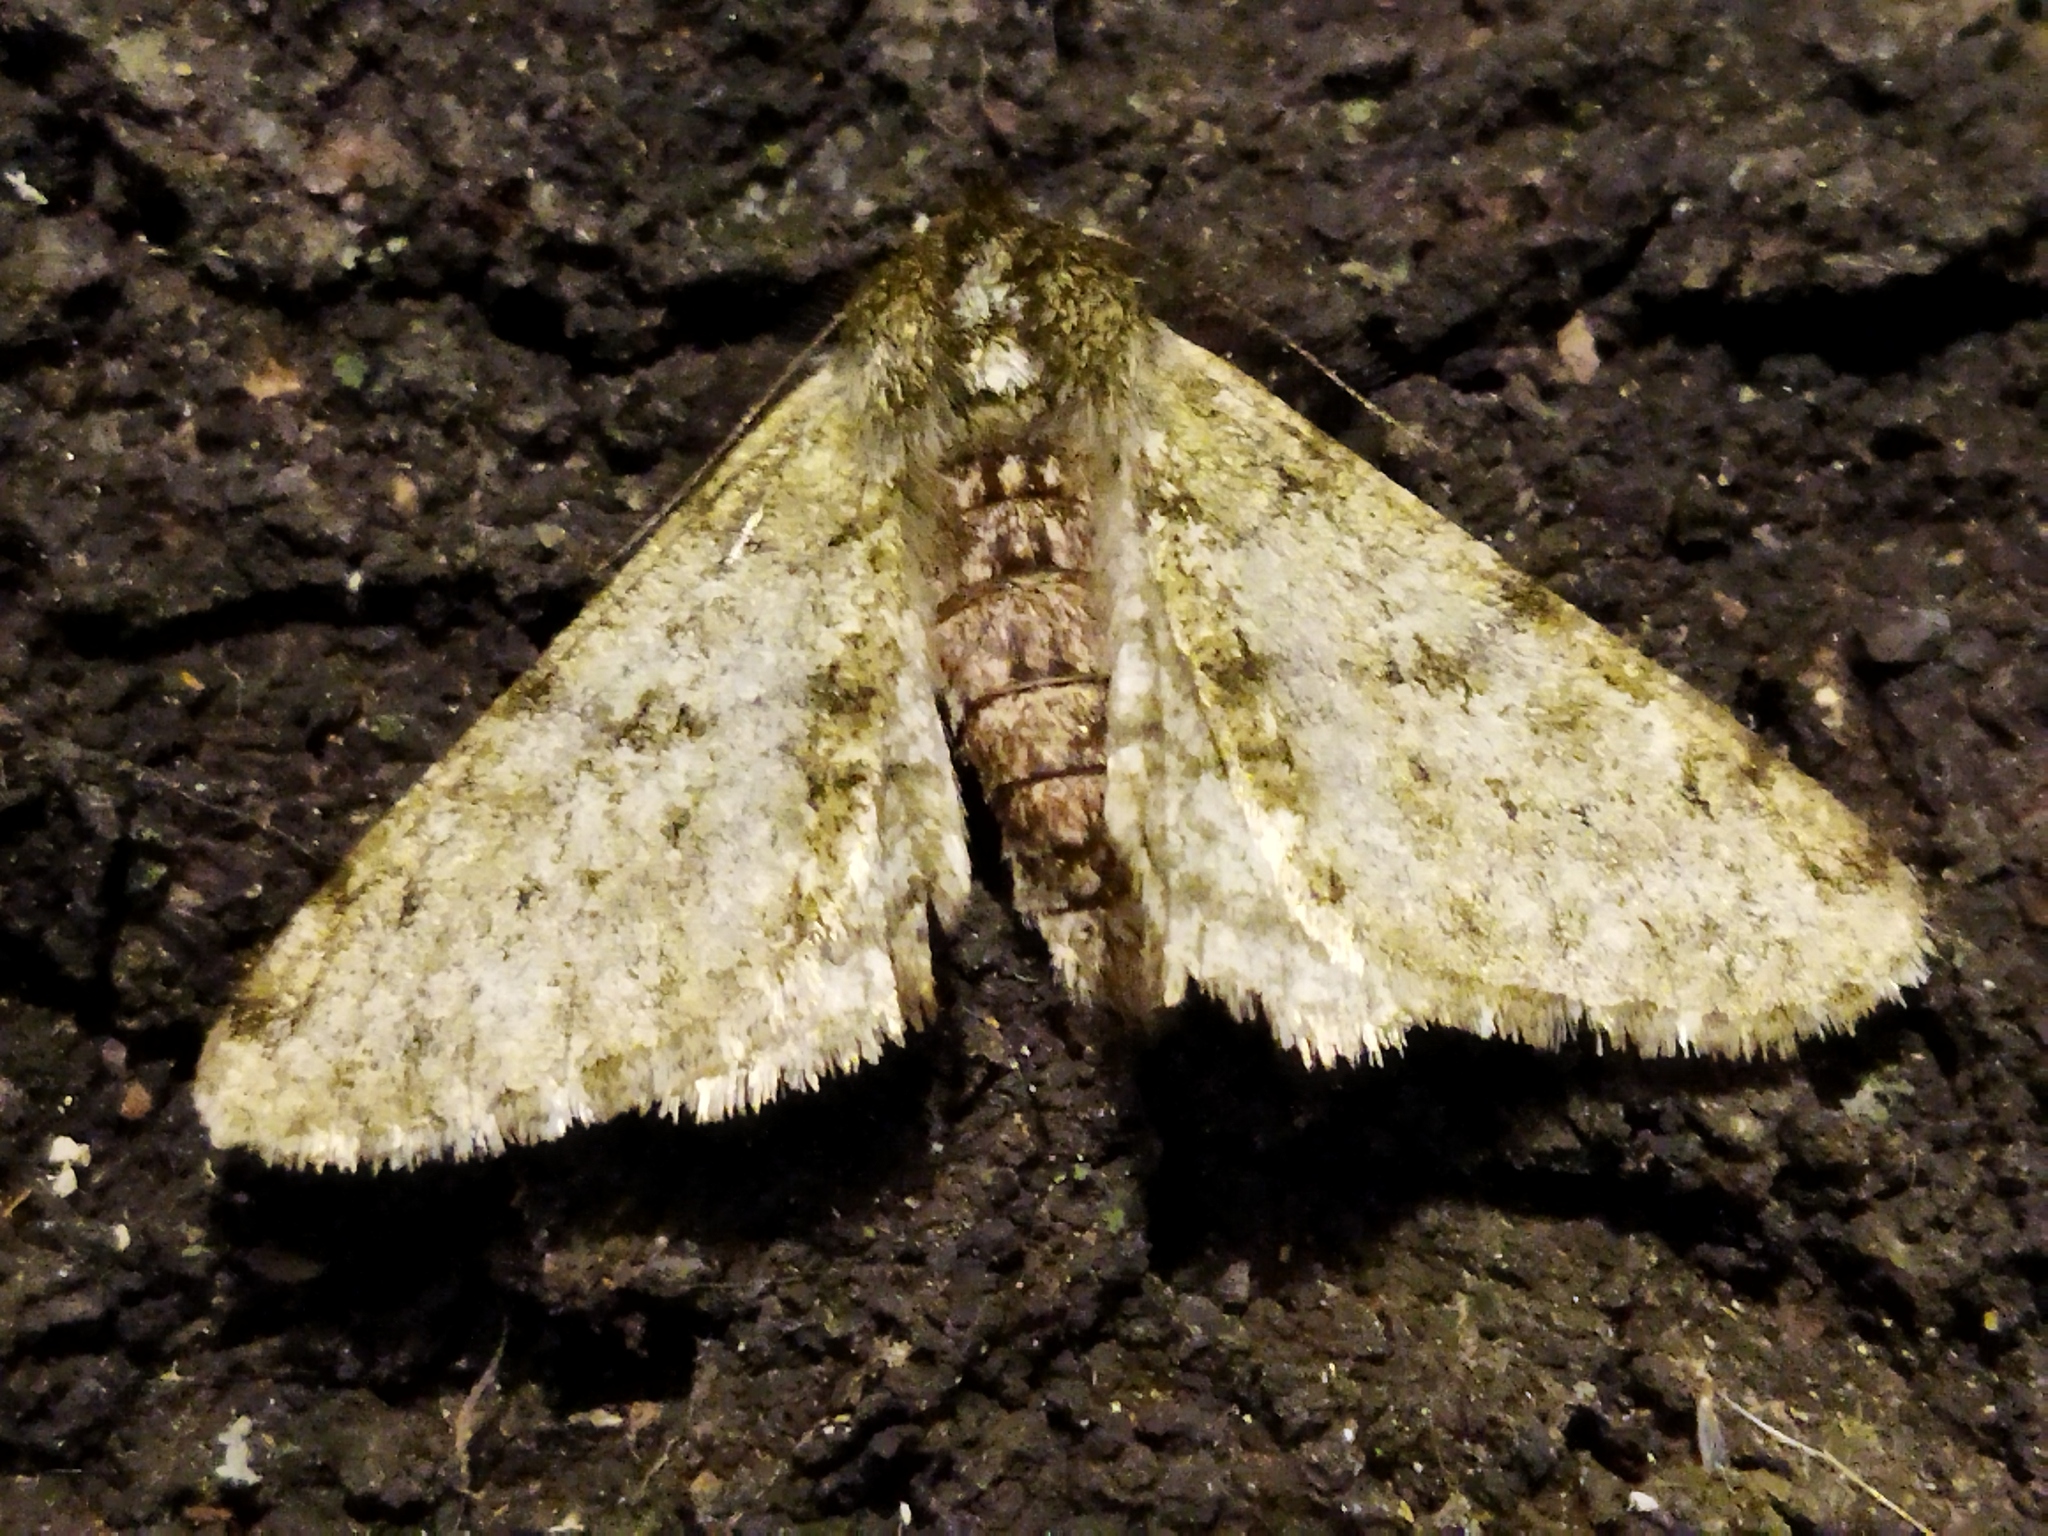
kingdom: Animalia
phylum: Arthropoda
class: Insecta
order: Lepidoptera
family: Geometridae
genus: Phigalia
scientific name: Phigalia pilosaria
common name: Pale brindled beauty
